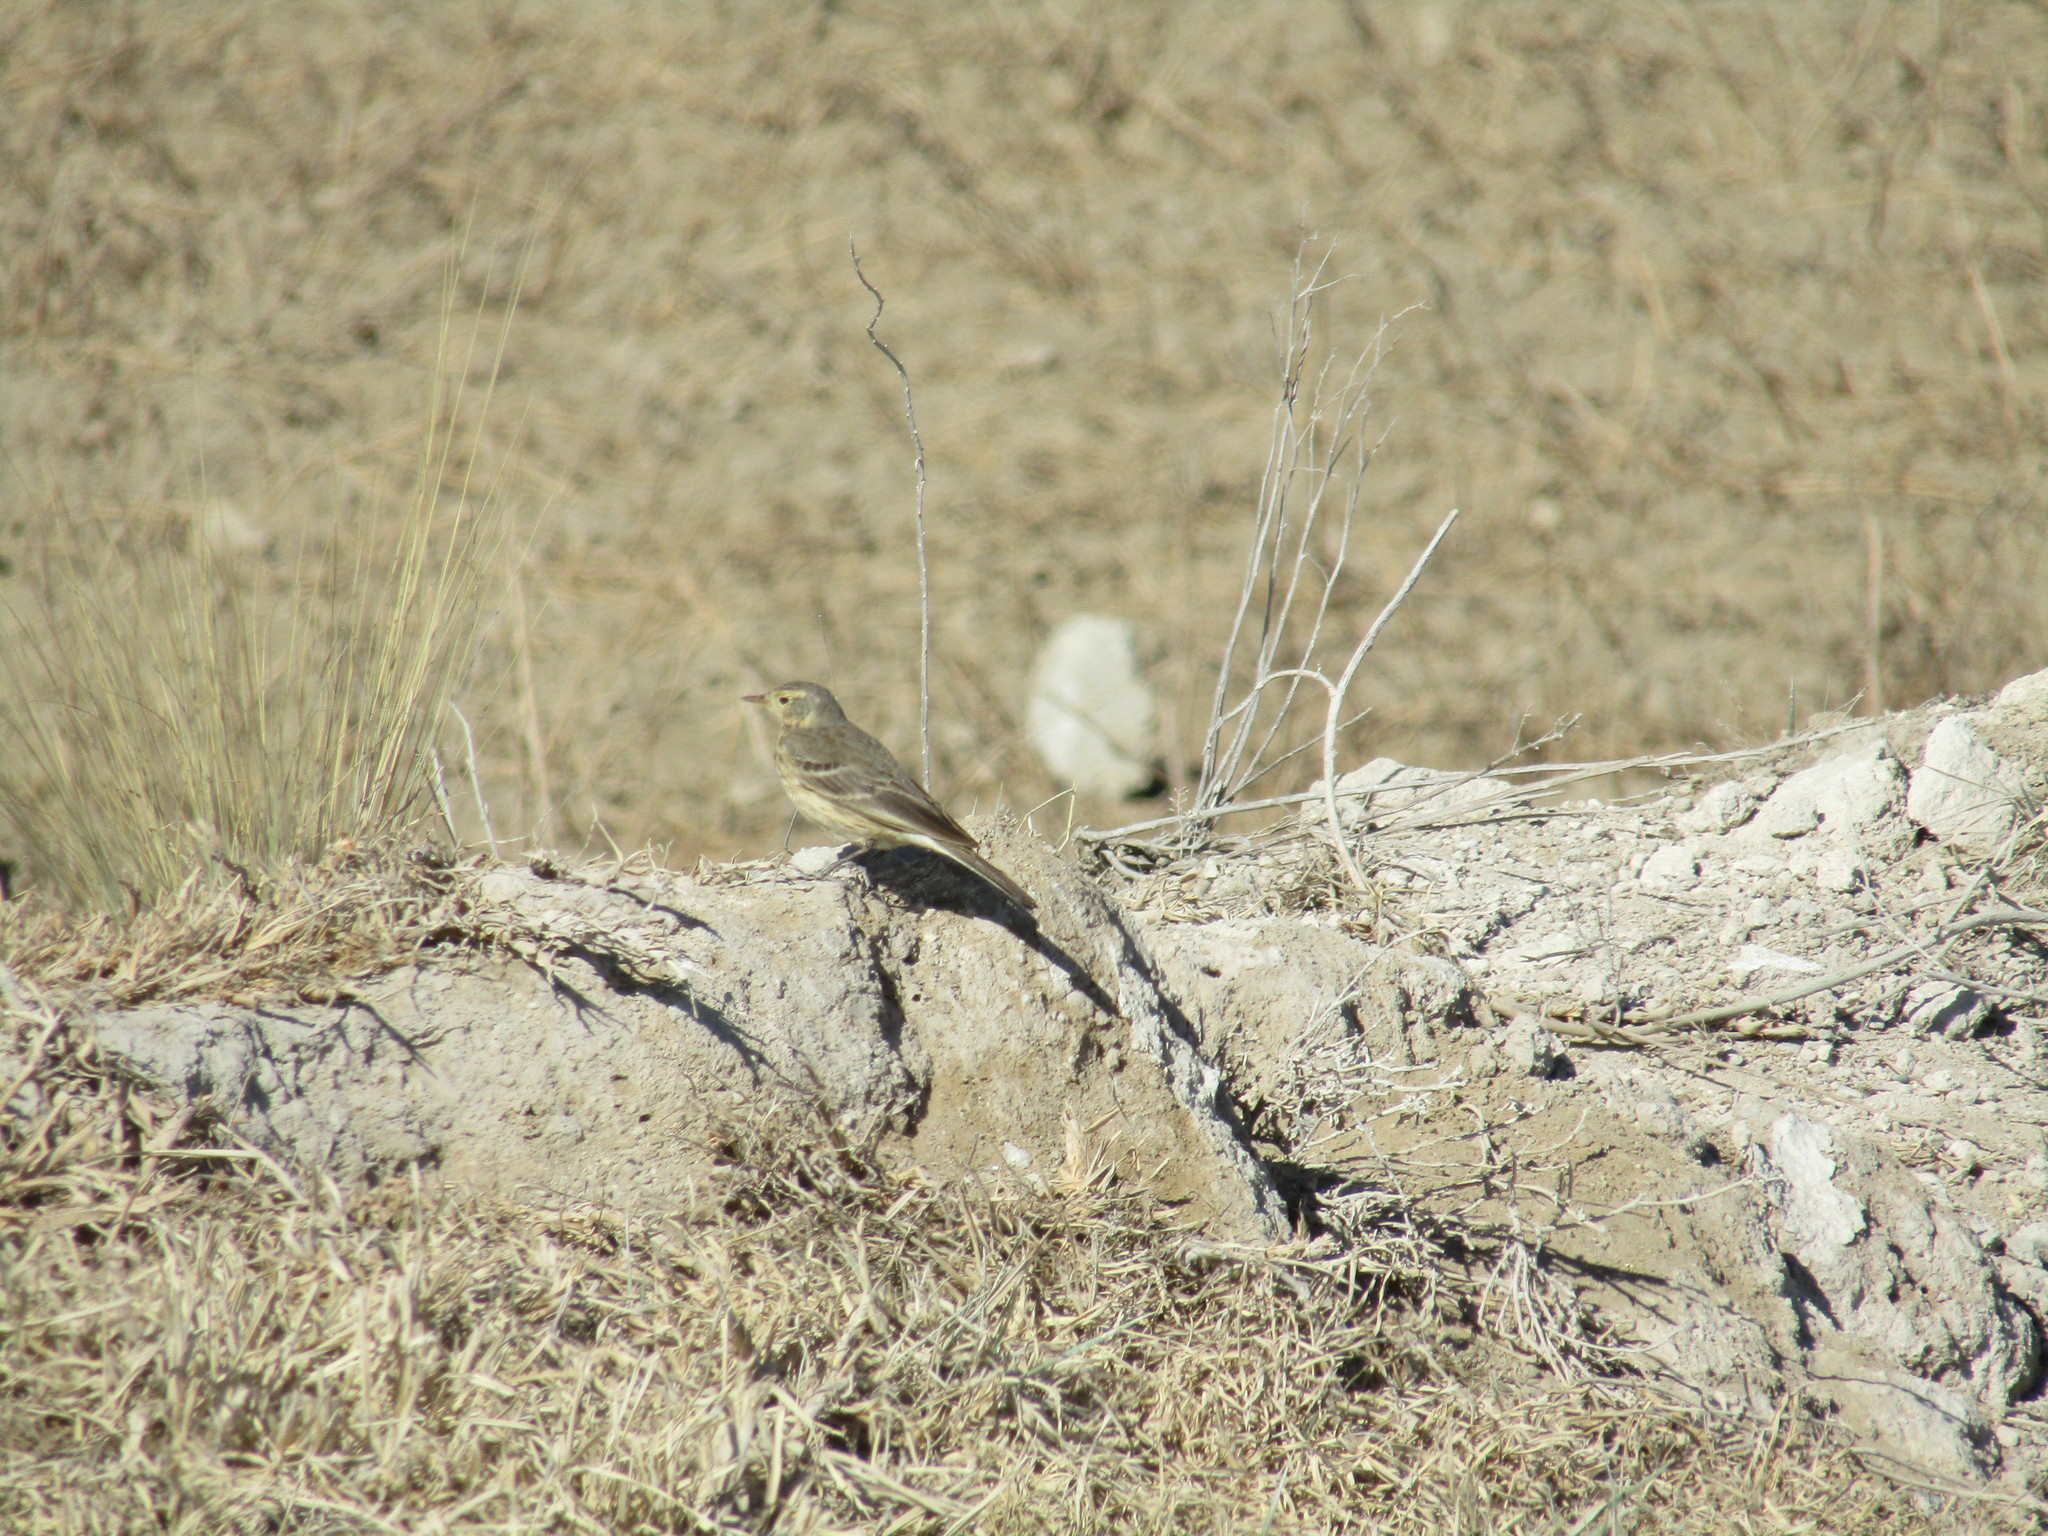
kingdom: Animalia
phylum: Chordata
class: Aves
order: Passeriformes
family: Motacillidae
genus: Anthus
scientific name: Anthus rubescens
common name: Buff-bellied pipit
